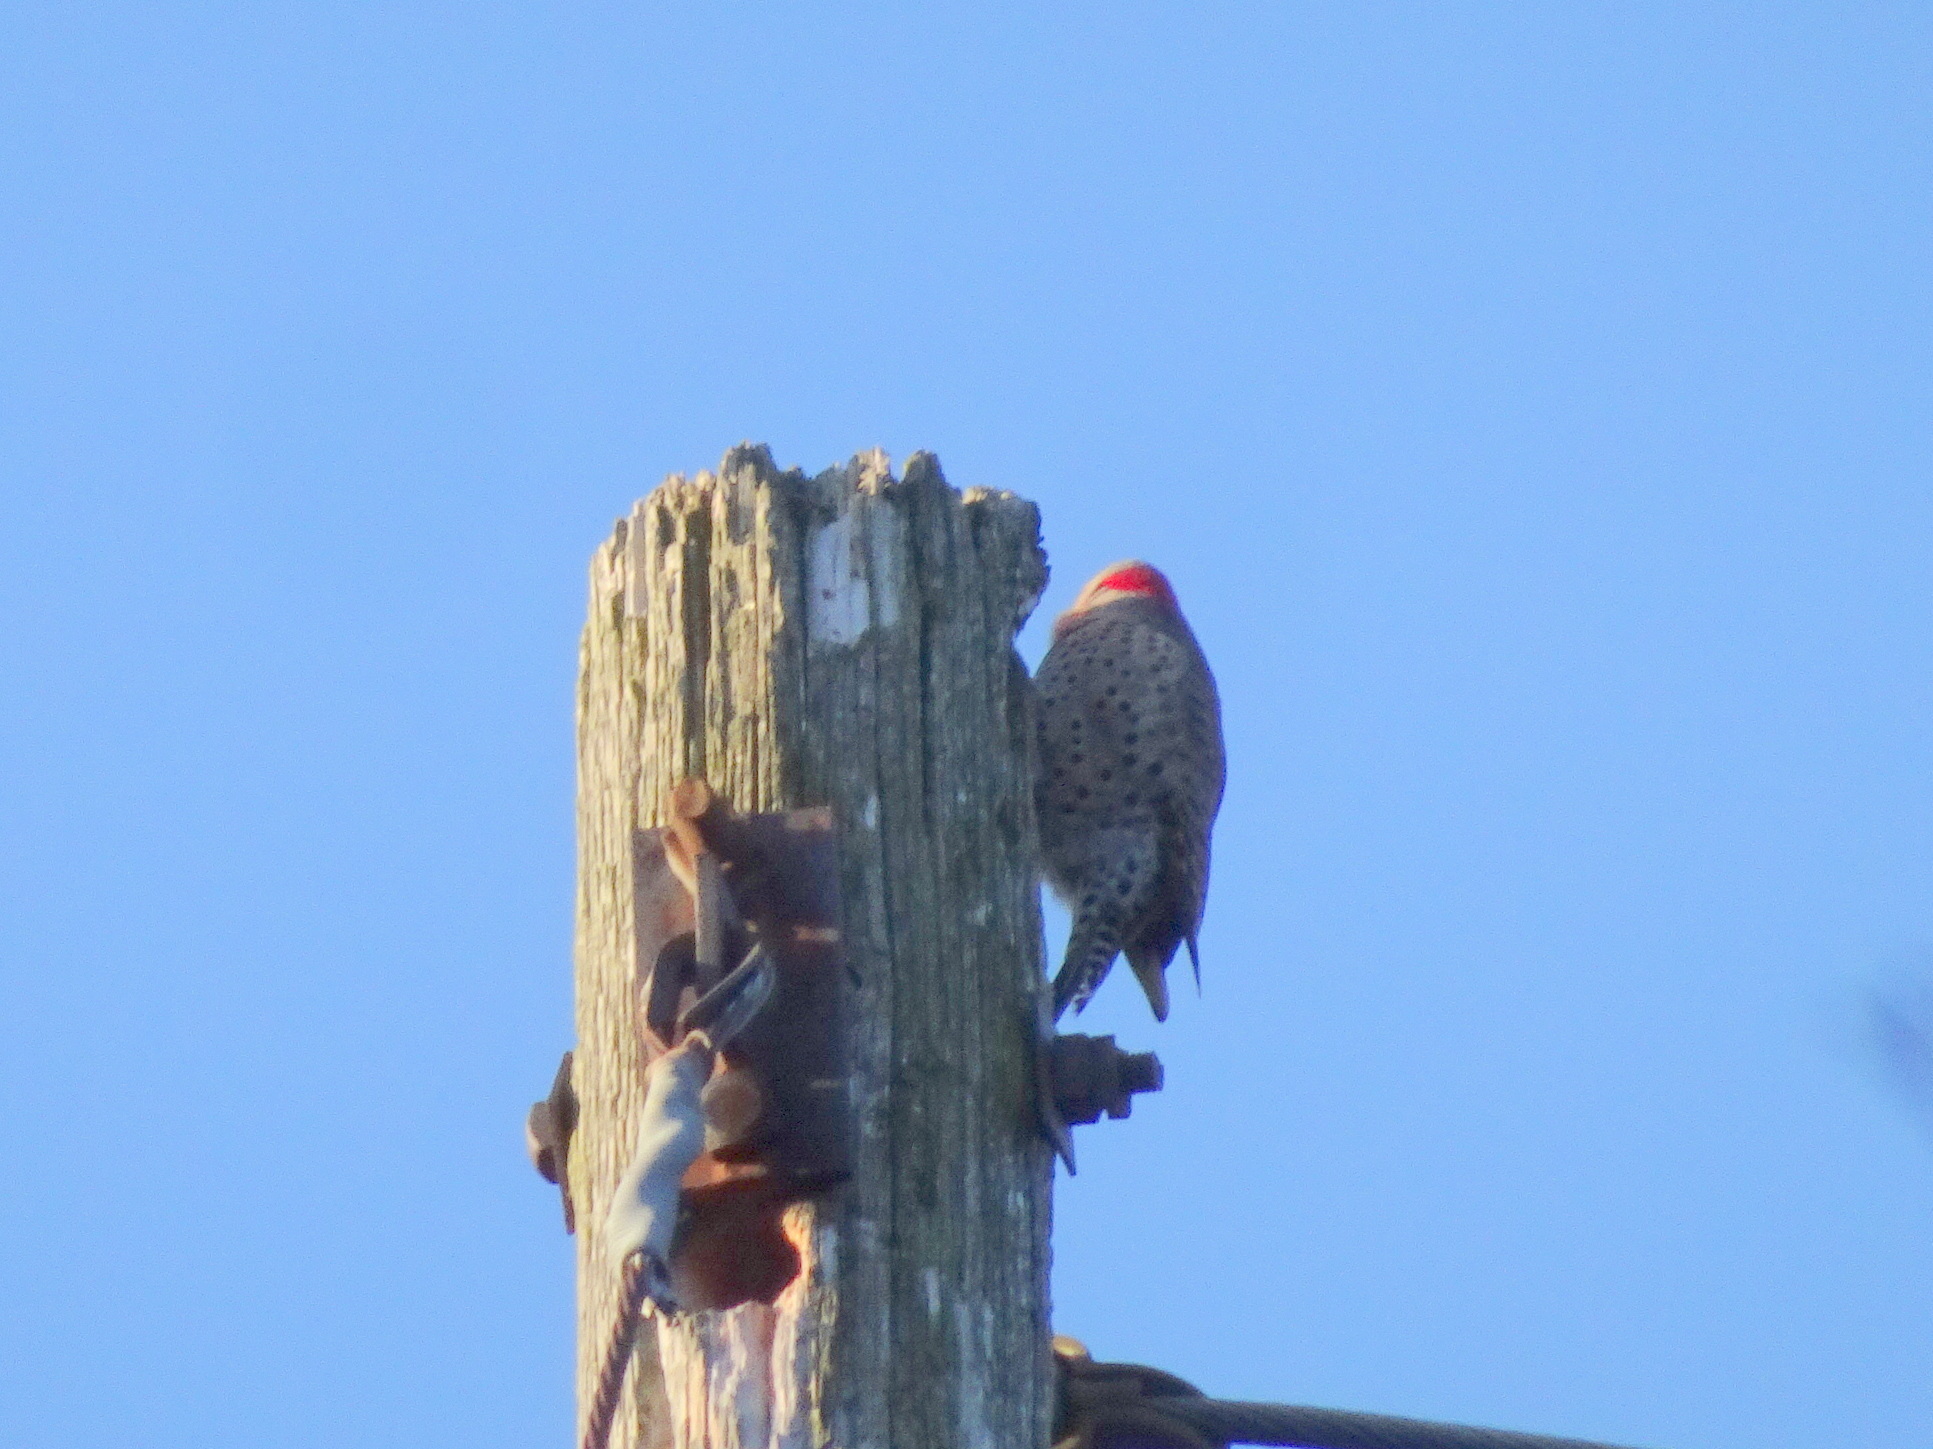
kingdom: Animalia
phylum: Chordata
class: Aves
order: Piciformes
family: Picidae
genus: Colaptes
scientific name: Colaptes auratus
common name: Northern flicker
